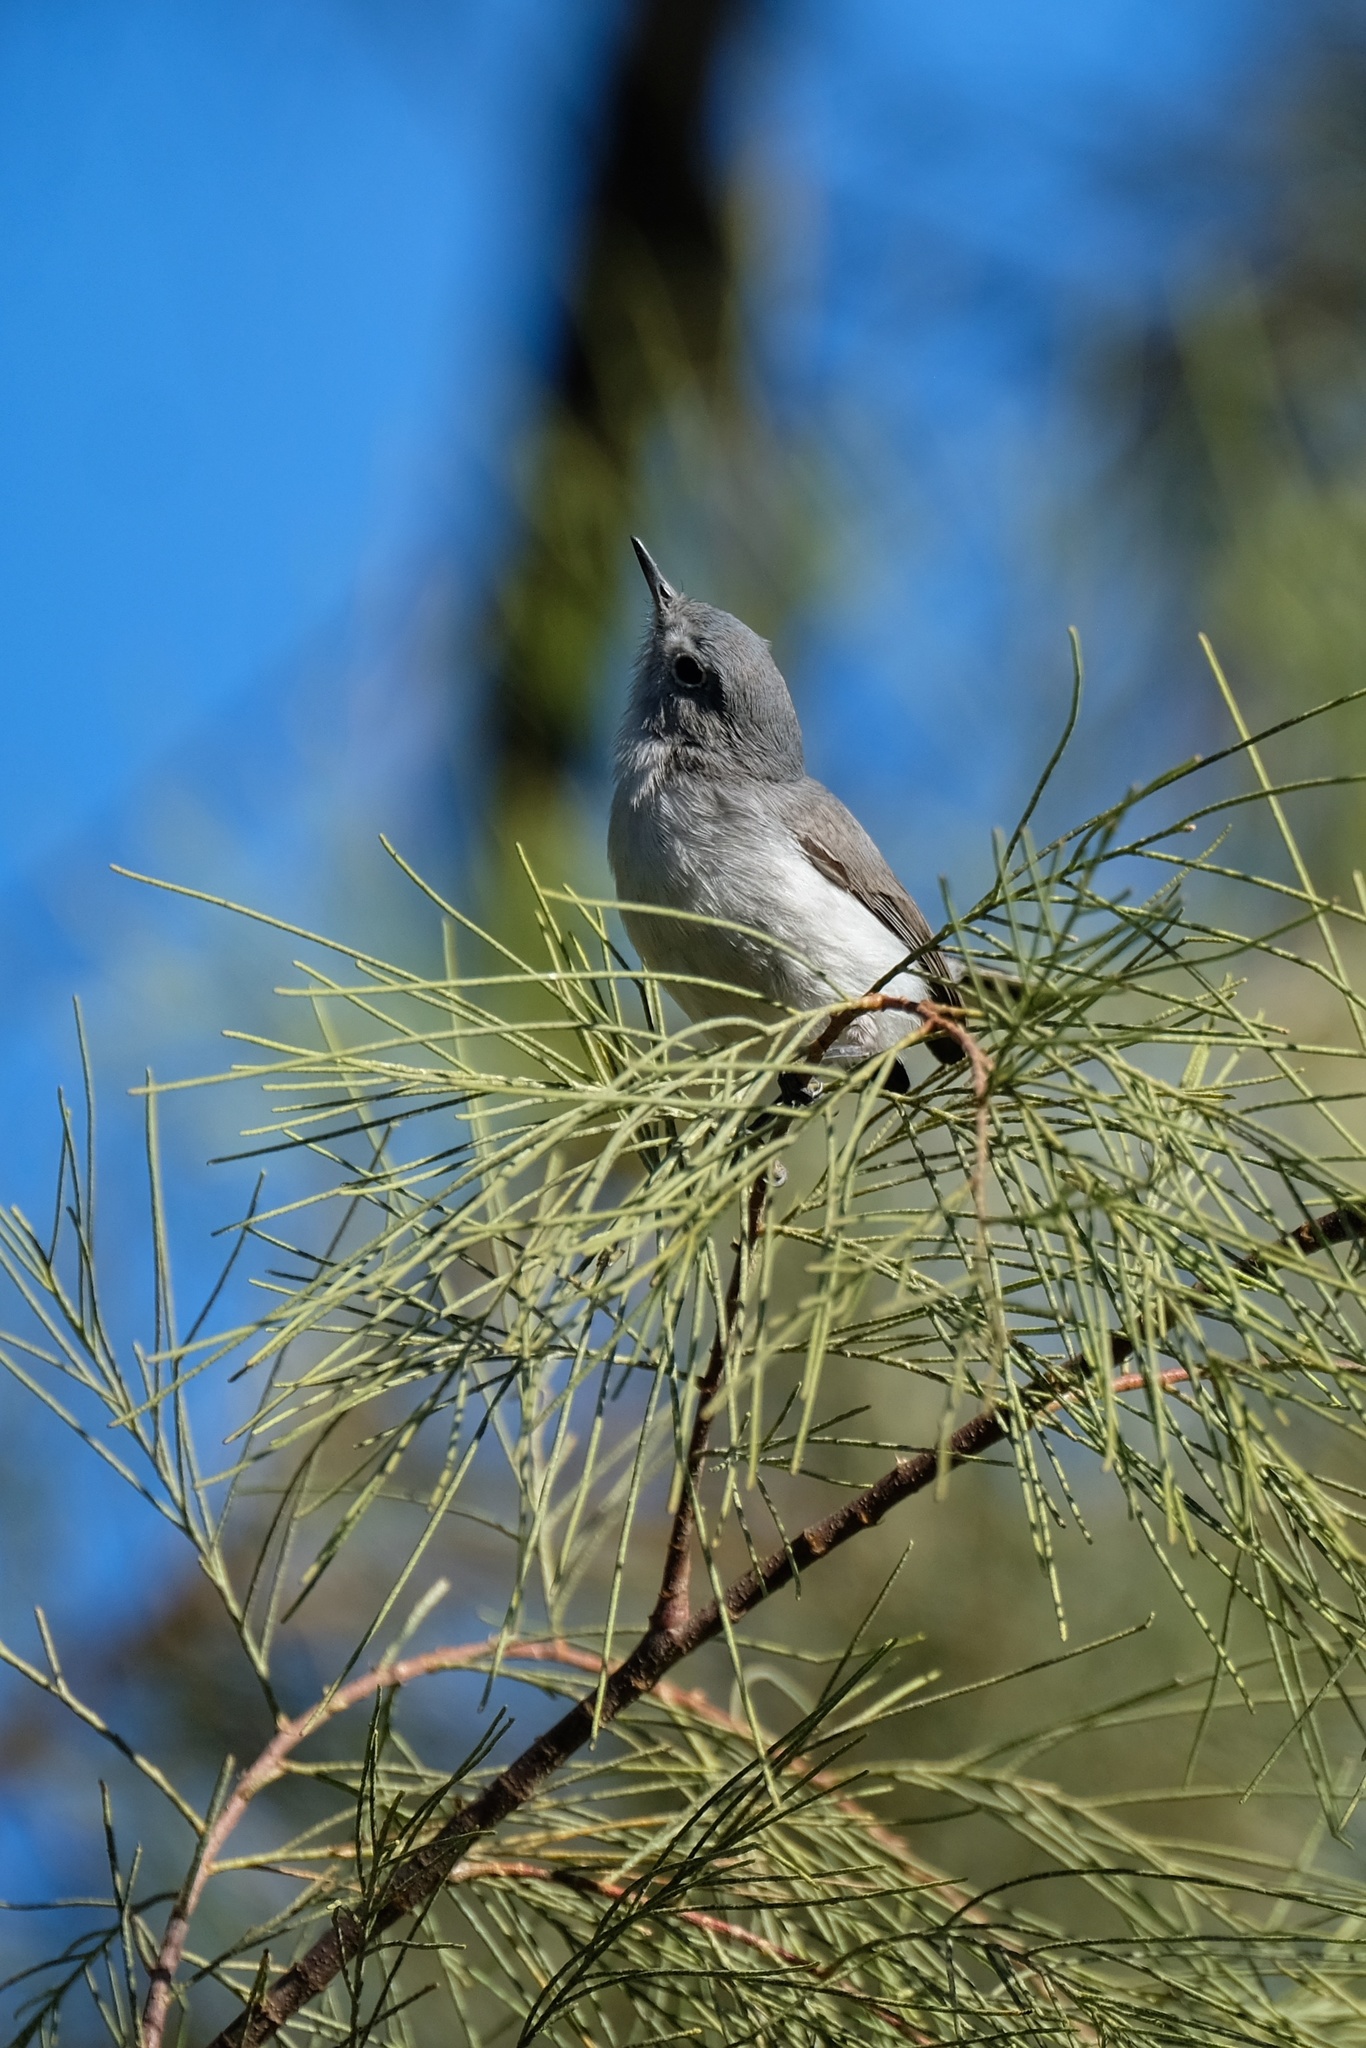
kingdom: Animalia
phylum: Chordata
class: Aves
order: Passeriformes
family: Polioptilidae
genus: Polioptila
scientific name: Polioptila caerulea
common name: Blue-gray gnatcatcher
